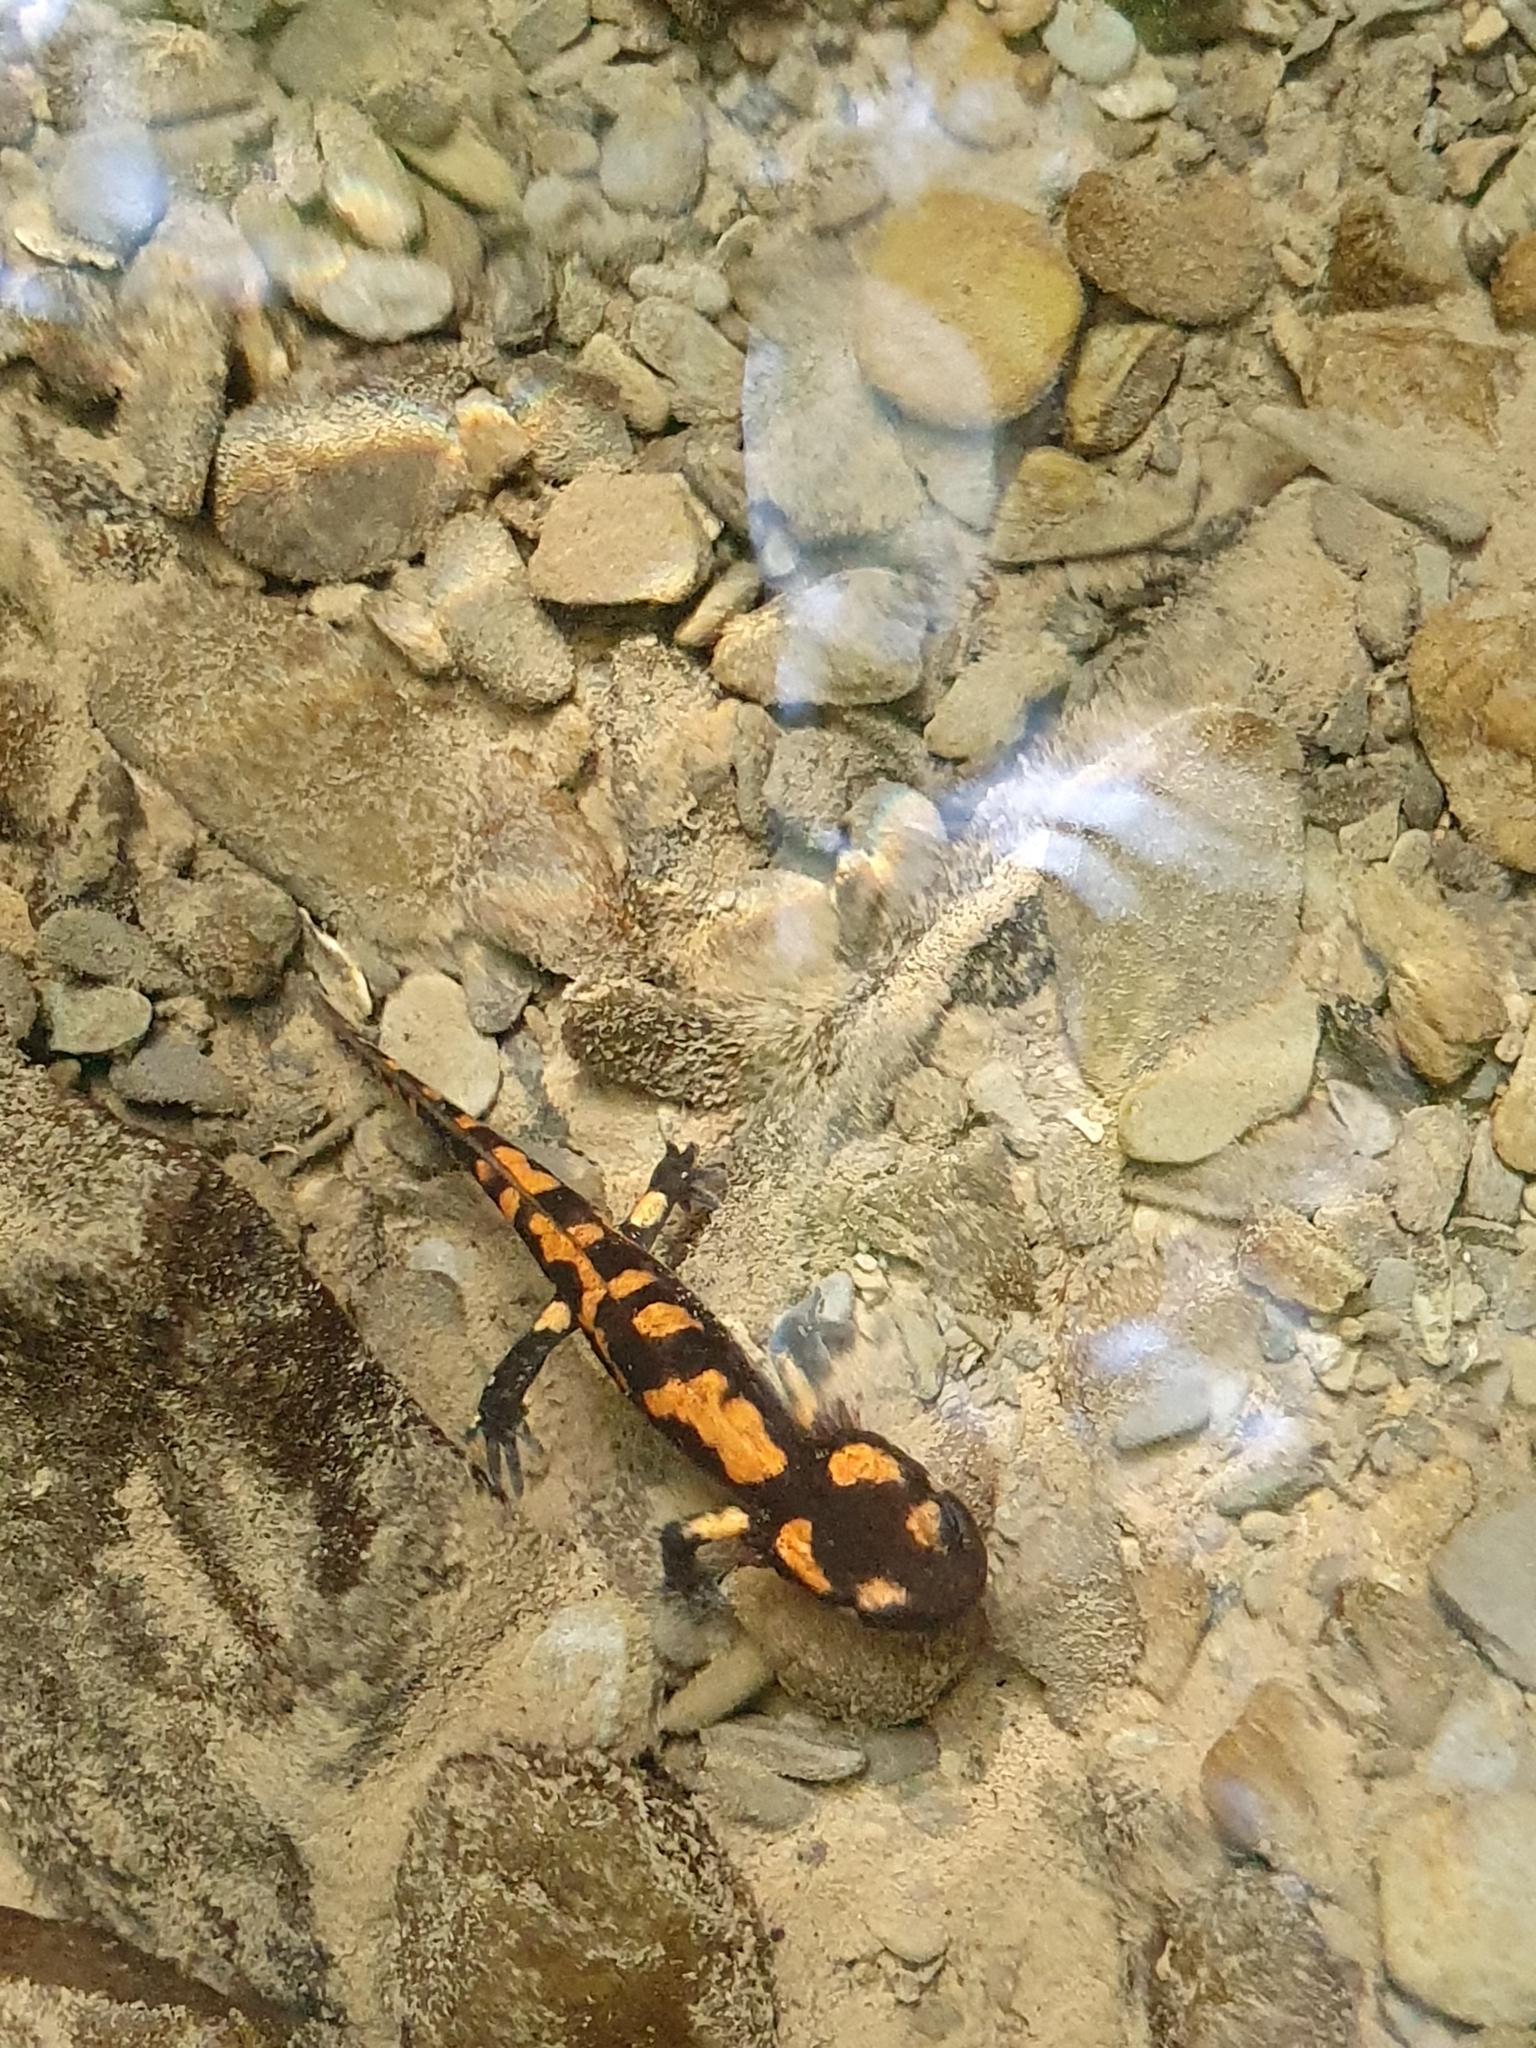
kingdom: Animalia
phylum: Chordata
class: Amphibia
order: Caudata
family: Salamandridae
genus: Salamandra
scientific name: Salamandra salamandra
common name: Fire salamander
